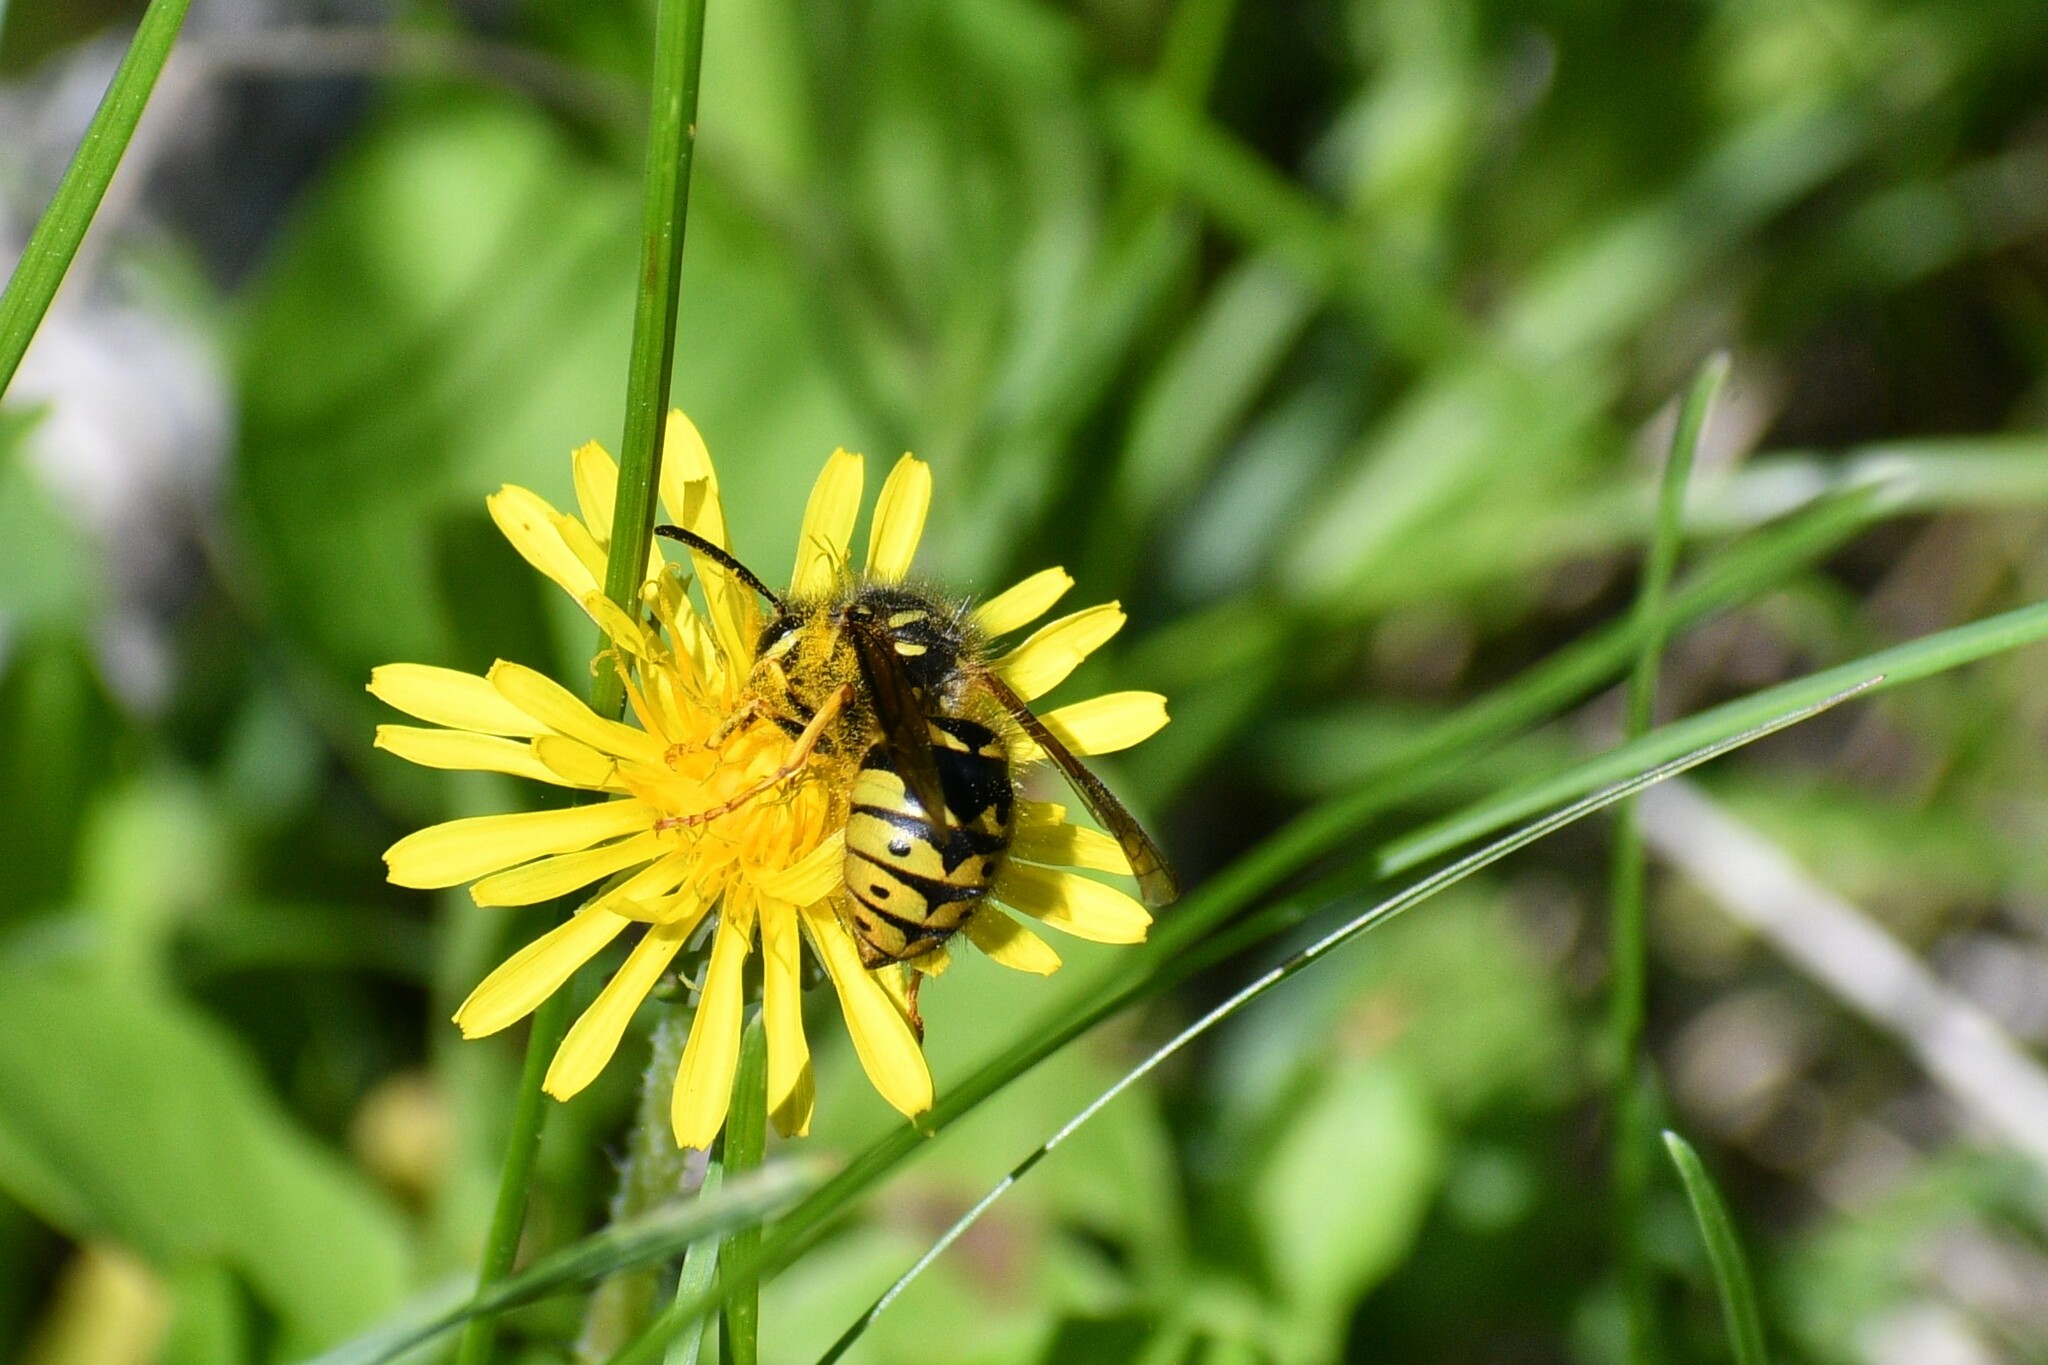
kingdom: Animalia
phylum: Arthropoda
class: Insecta
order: Hymenoptera
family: Vespidae
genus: Dolichovespula
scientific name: Dolichovespula arenaria
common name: Aerial yellowjacket
